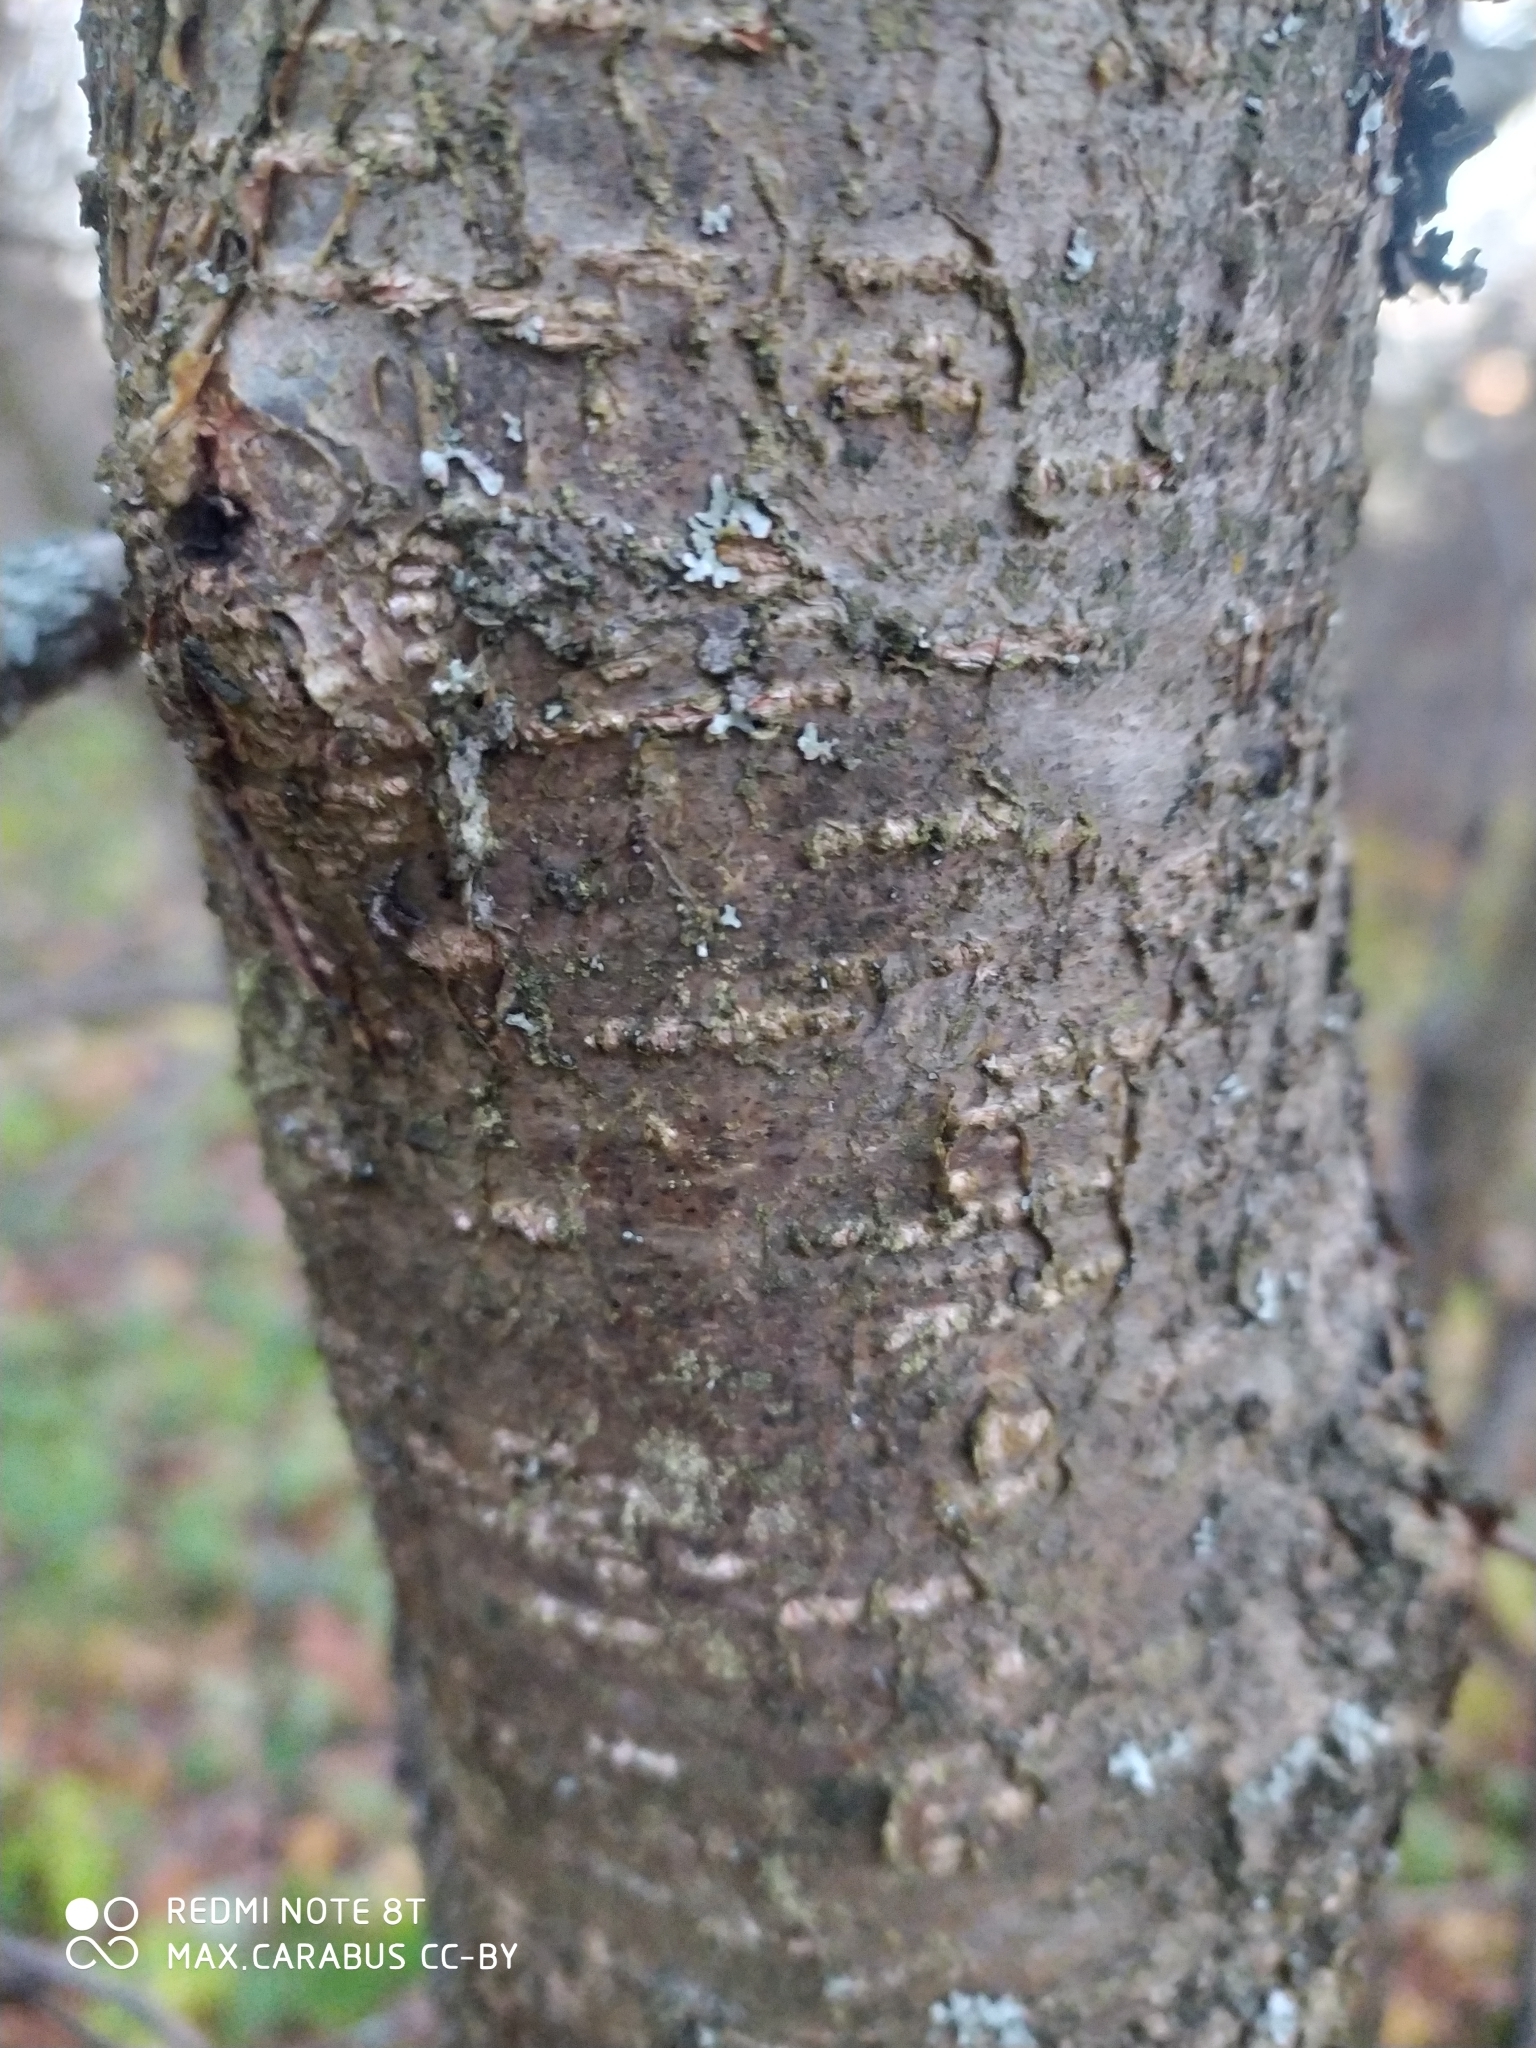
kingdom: Plantae
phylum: Tracheophyta
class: Magnoliopsida
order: Fagales
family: Betulaceae
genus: Corylus
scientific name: Corylus avellana
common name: European hazel
